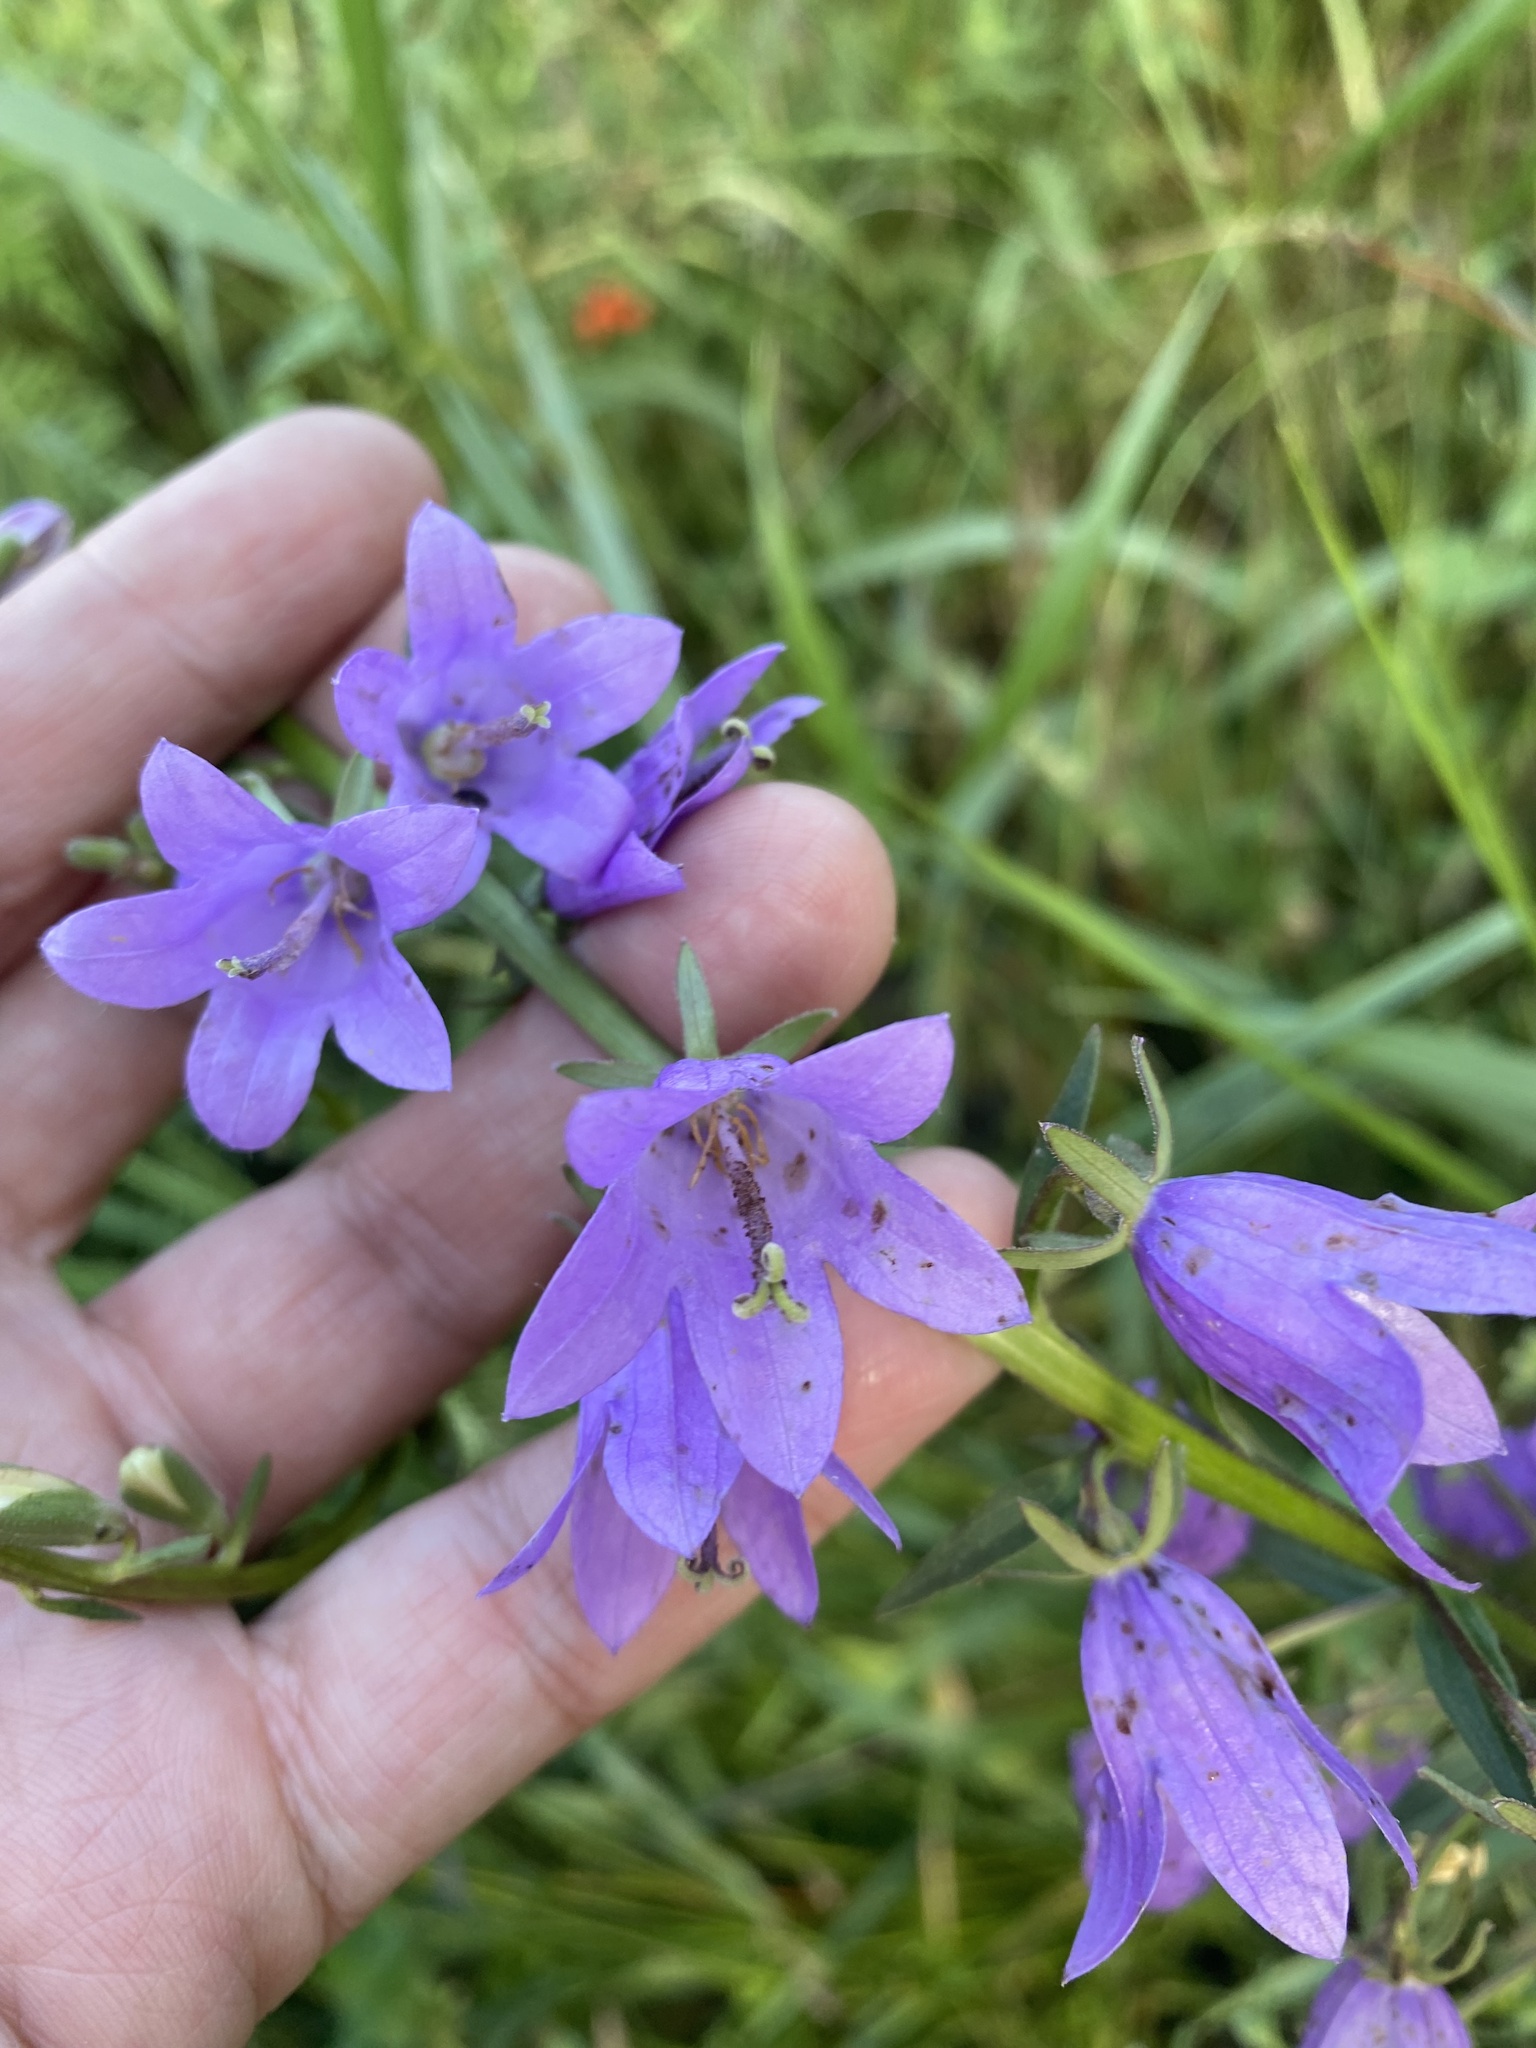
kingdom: Plantae
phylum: Tracheophyta
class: Magnoliopsida
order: Asterales
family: Campanulaceae
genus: Campanula
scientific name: Campanula rapunculoides
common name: Creeping bellflower
